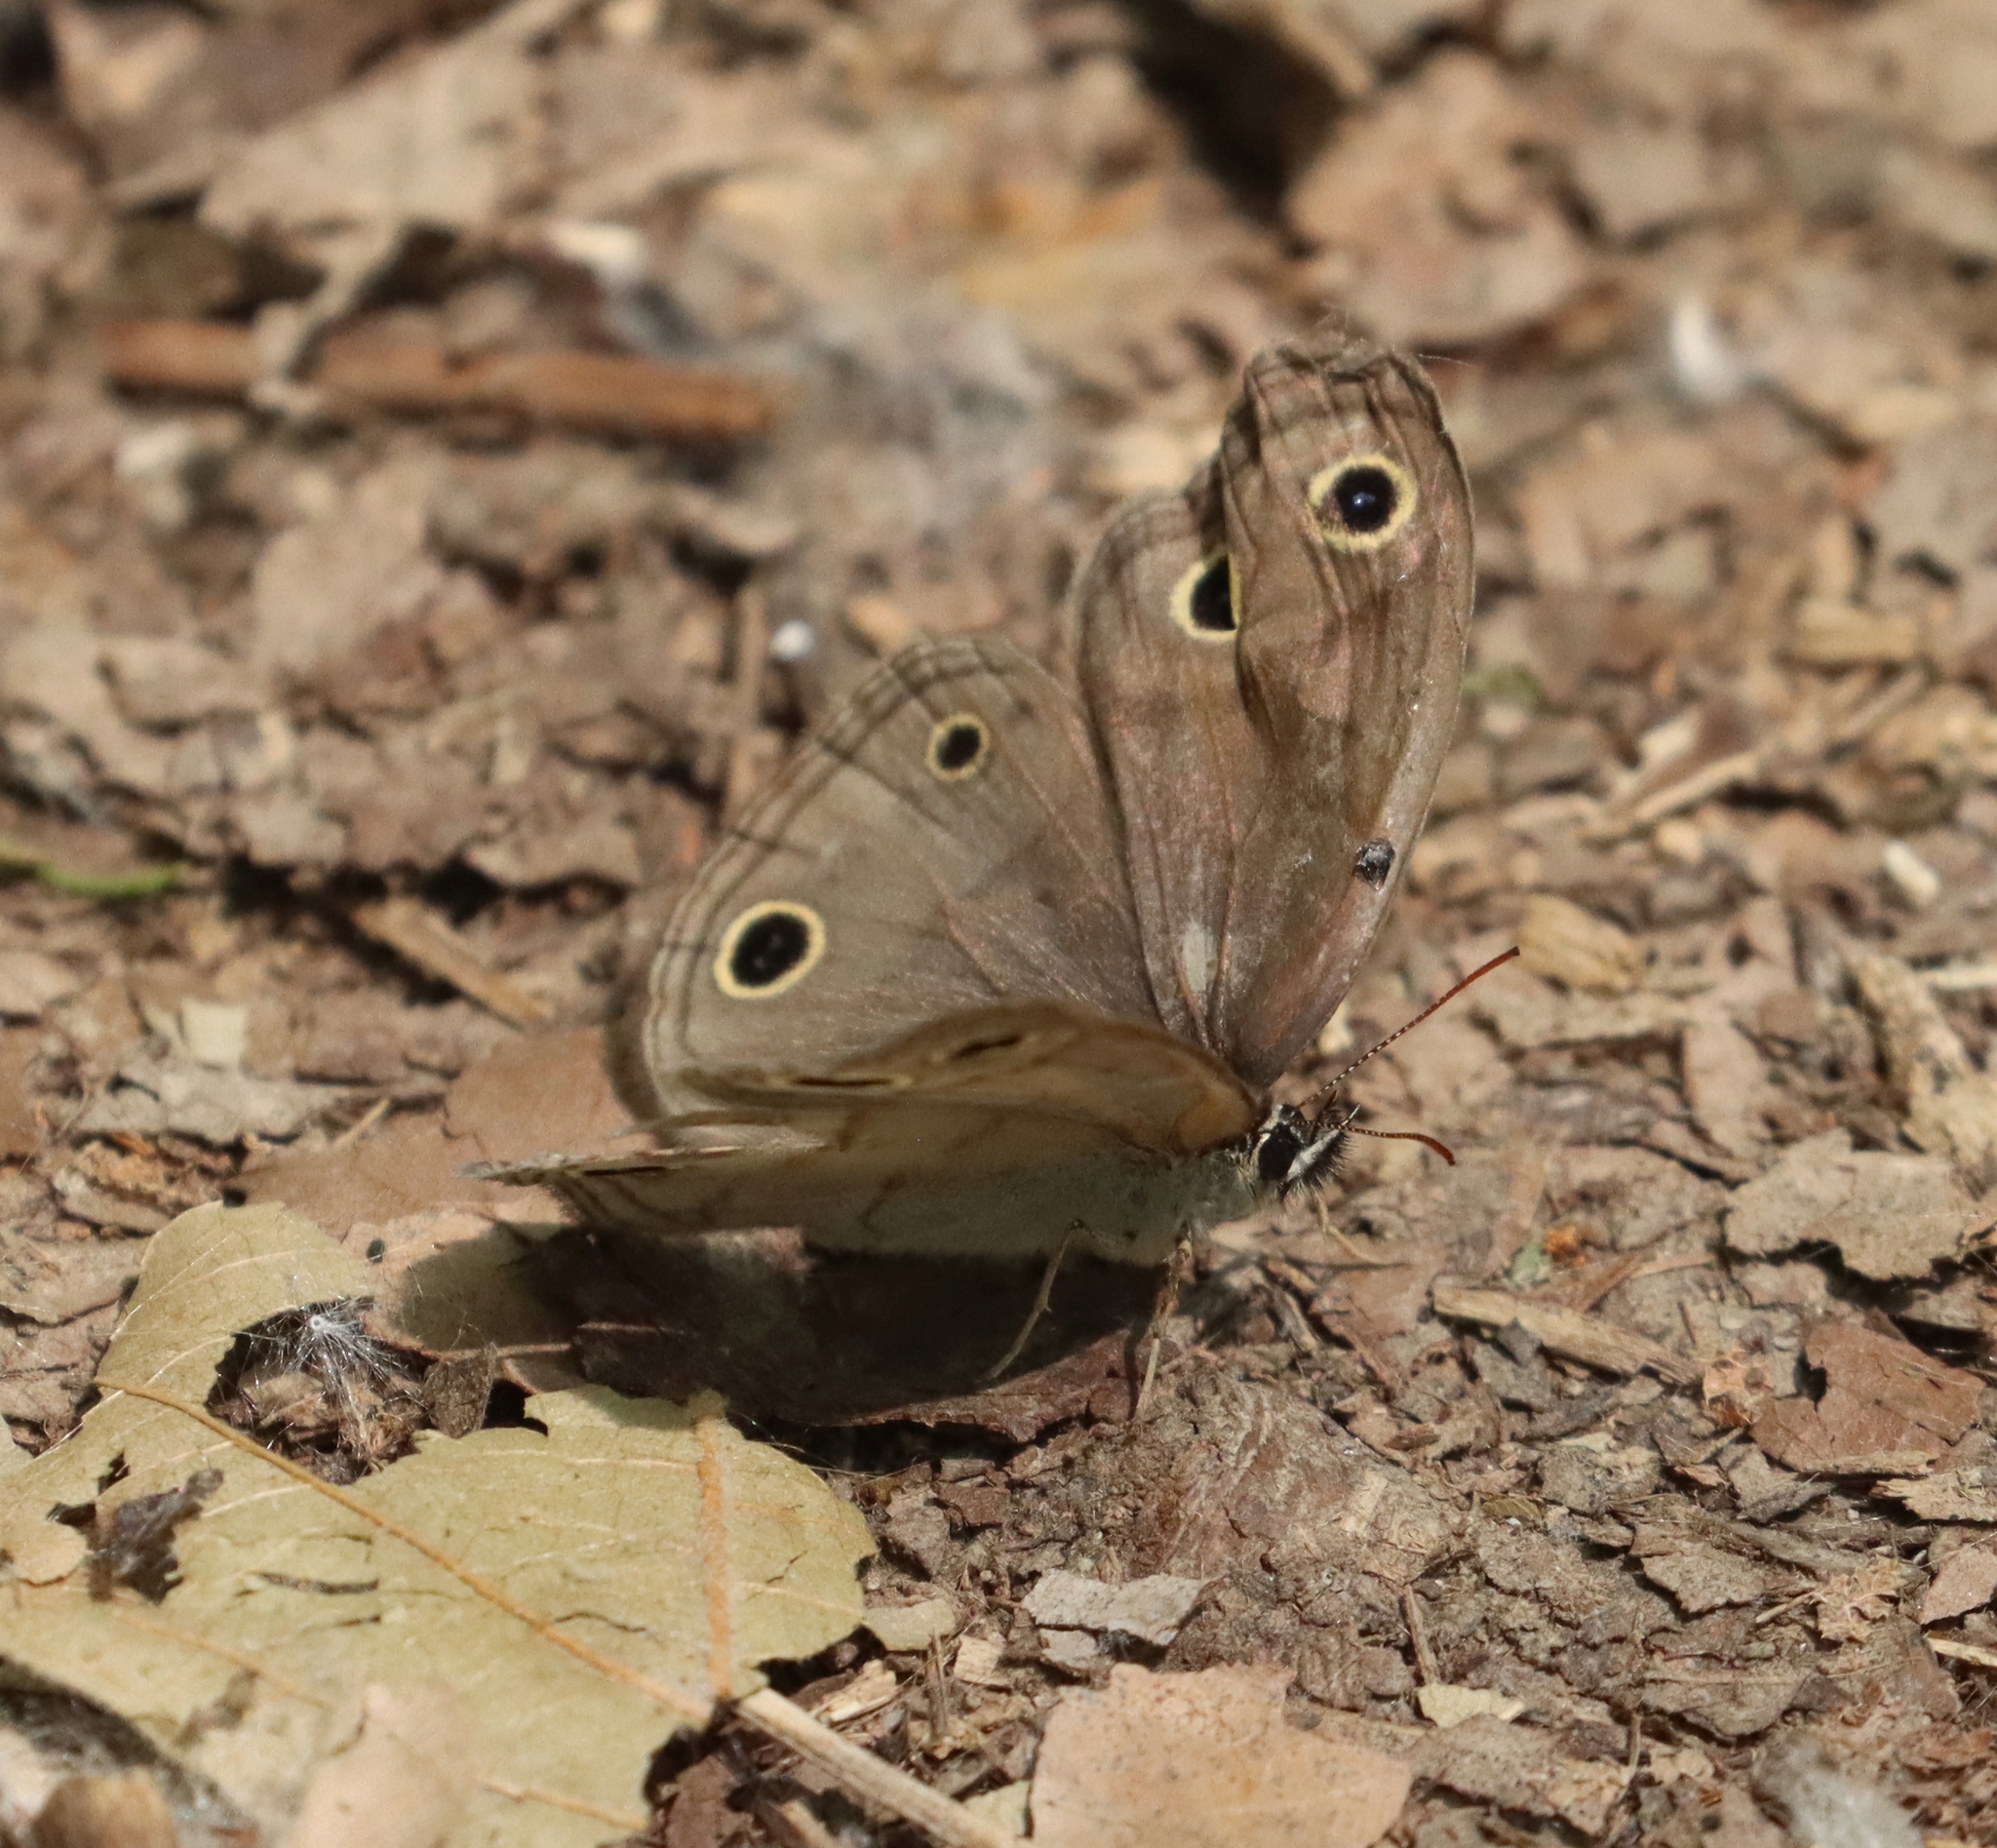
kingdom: Animalia
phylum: Arthropoda
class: Insecta
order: Lepidoptera
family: Nymphalidae
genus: Euptychia
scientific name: Euptychia cymela
